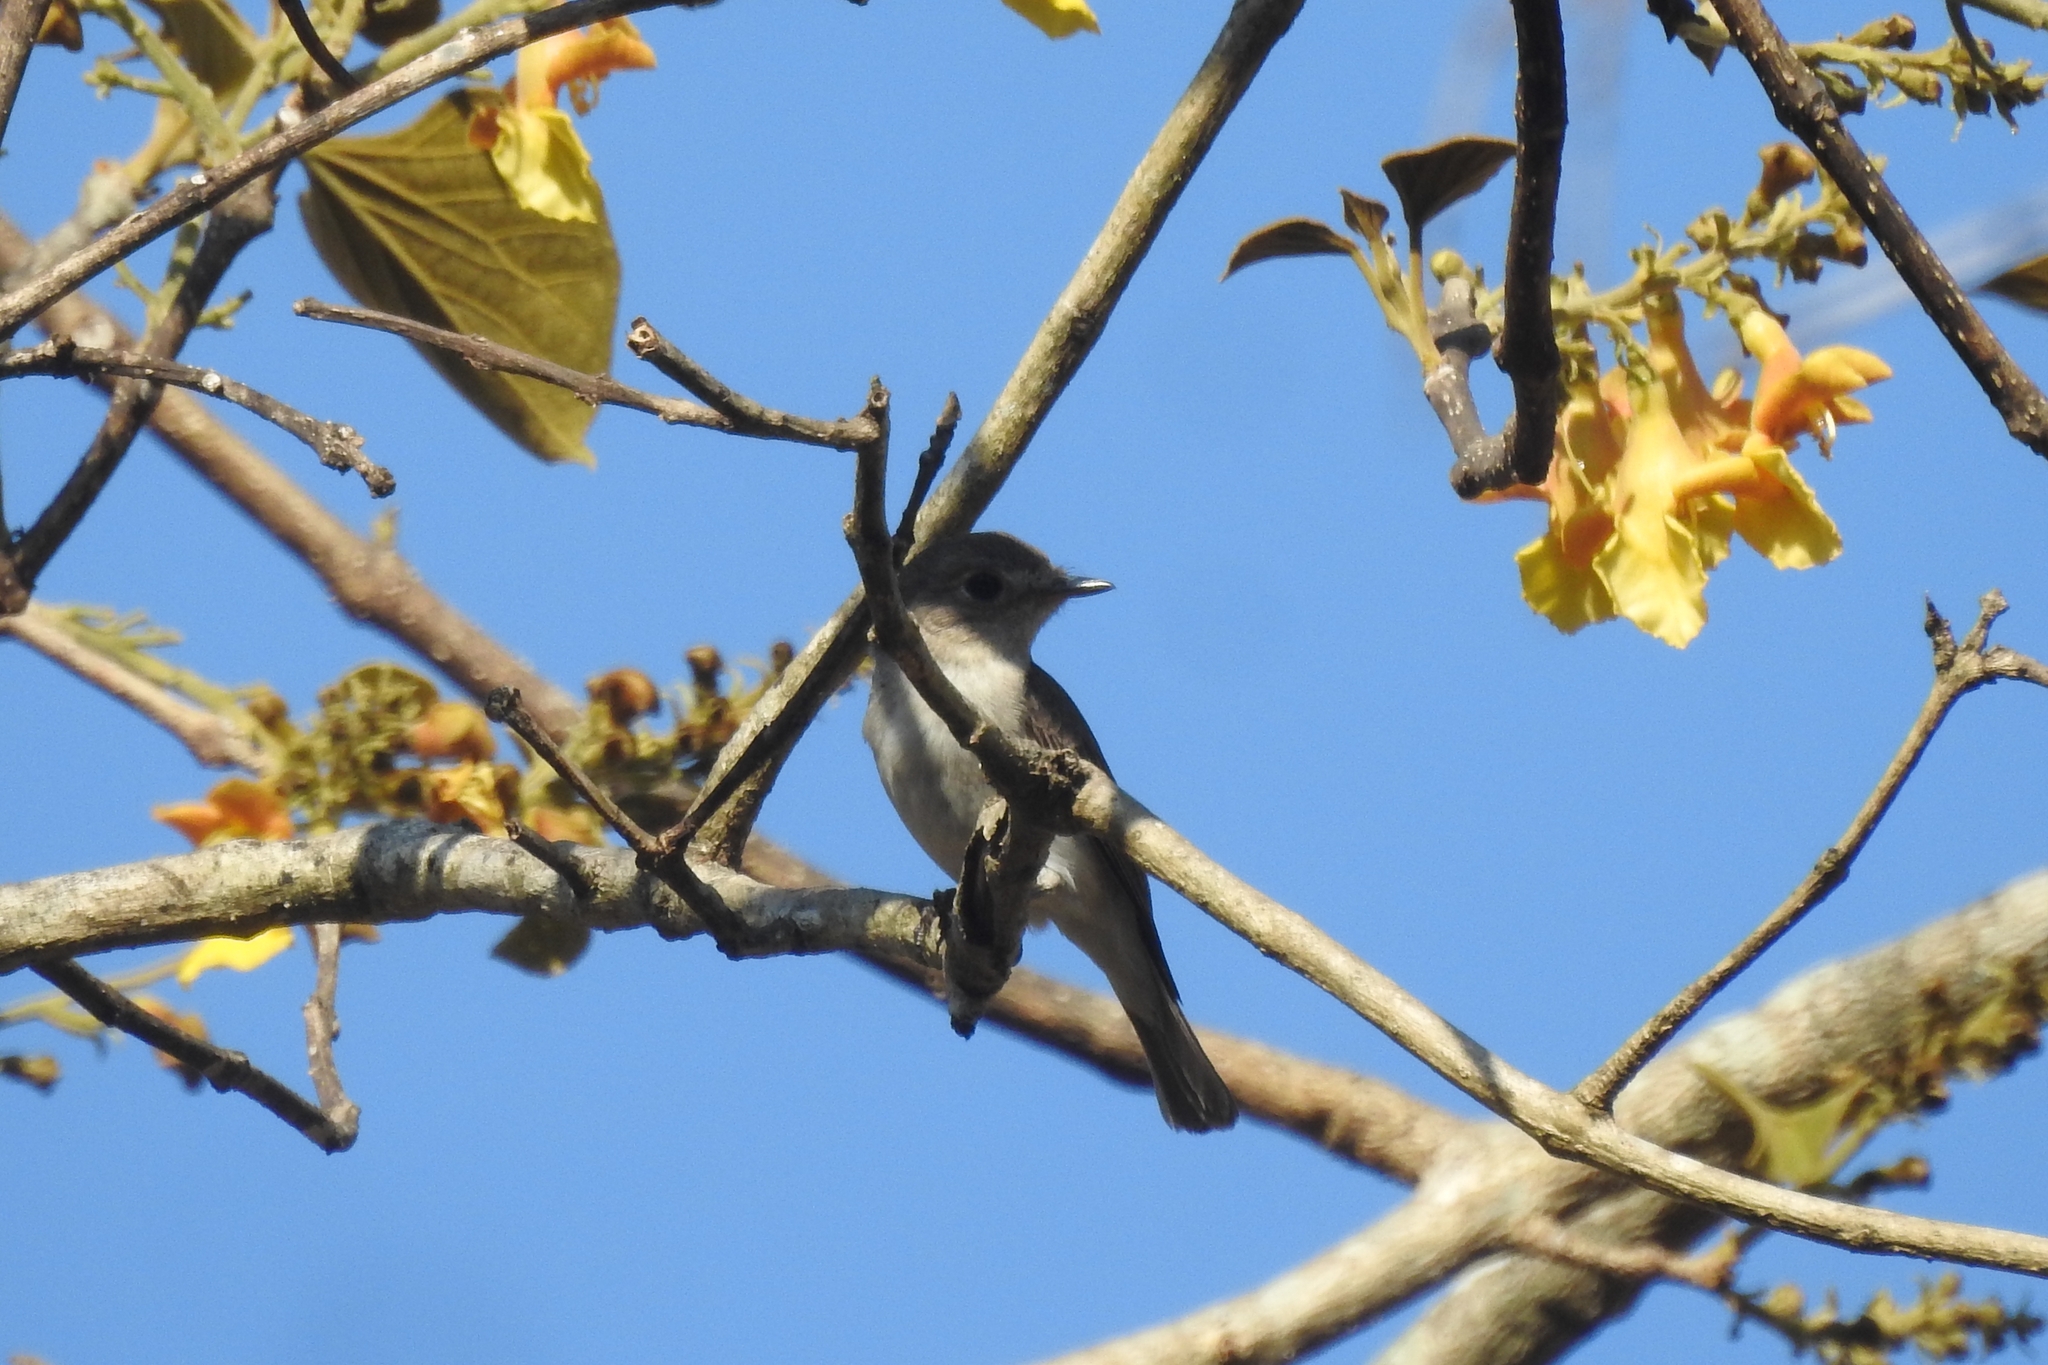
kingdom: Animalia
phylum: Chordata
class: Aves
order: Passeriformes
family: Muscicapidae
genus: Muscicapa
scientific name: Muscicapa latirostris
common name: Asian brown flycatcher
